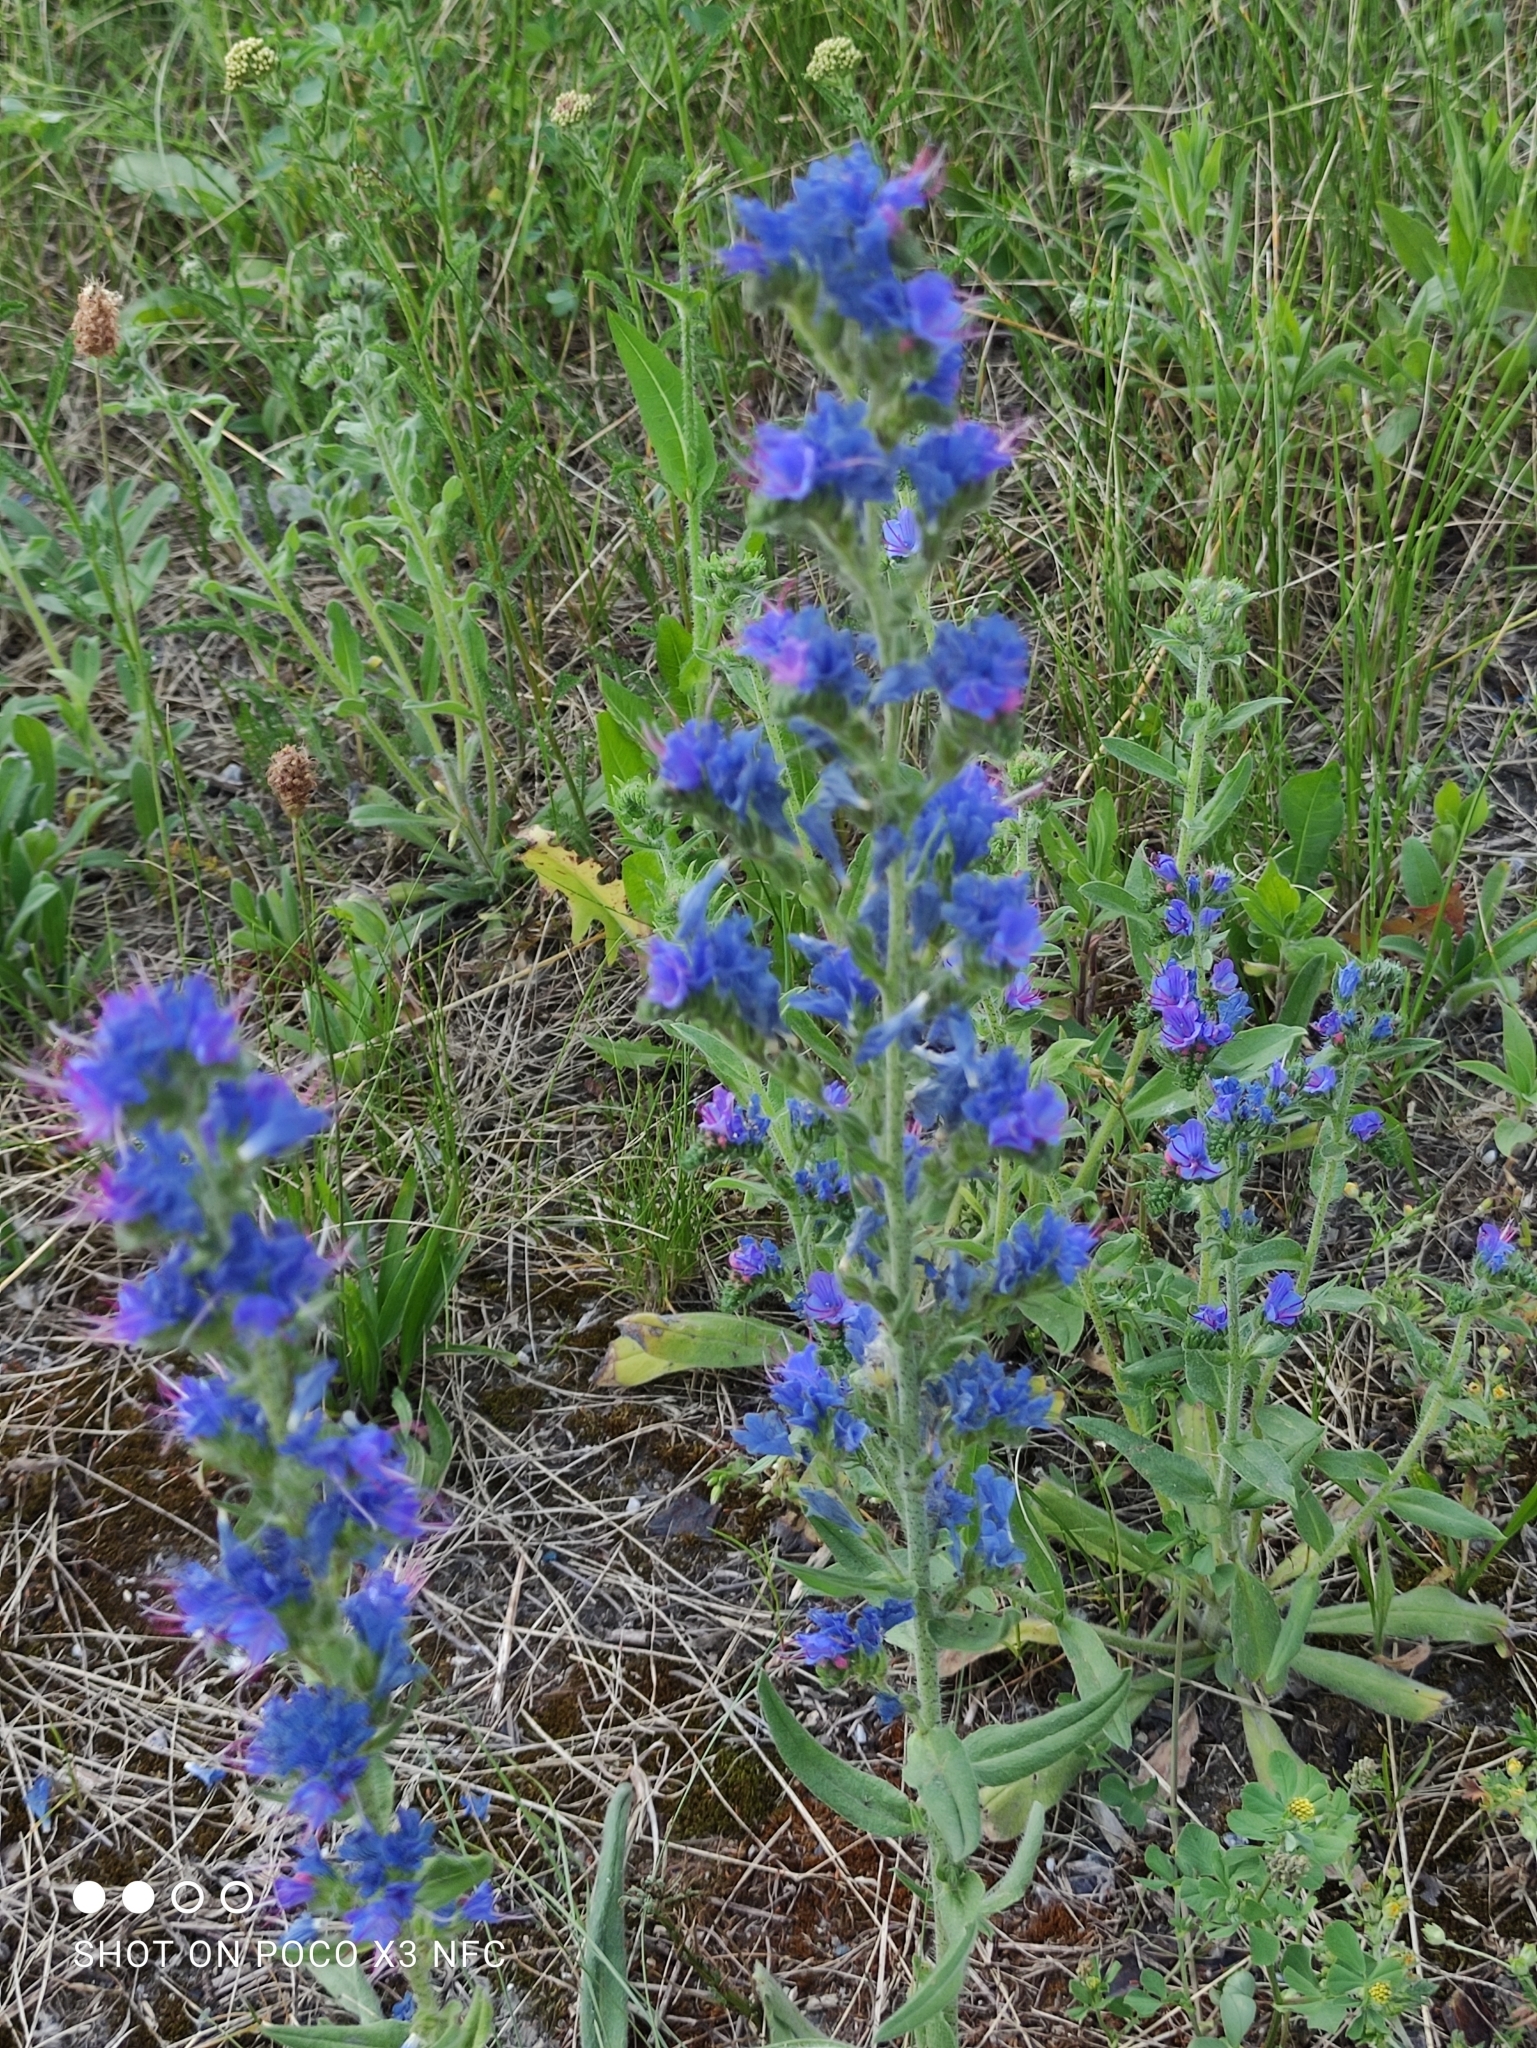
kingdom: Plantae
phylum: Tracheophyta
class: Magnoliopsida
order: Boraginales
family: Boraginaceae
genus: Echium
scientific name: Echium vulgare
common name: Common viper's bugloss
